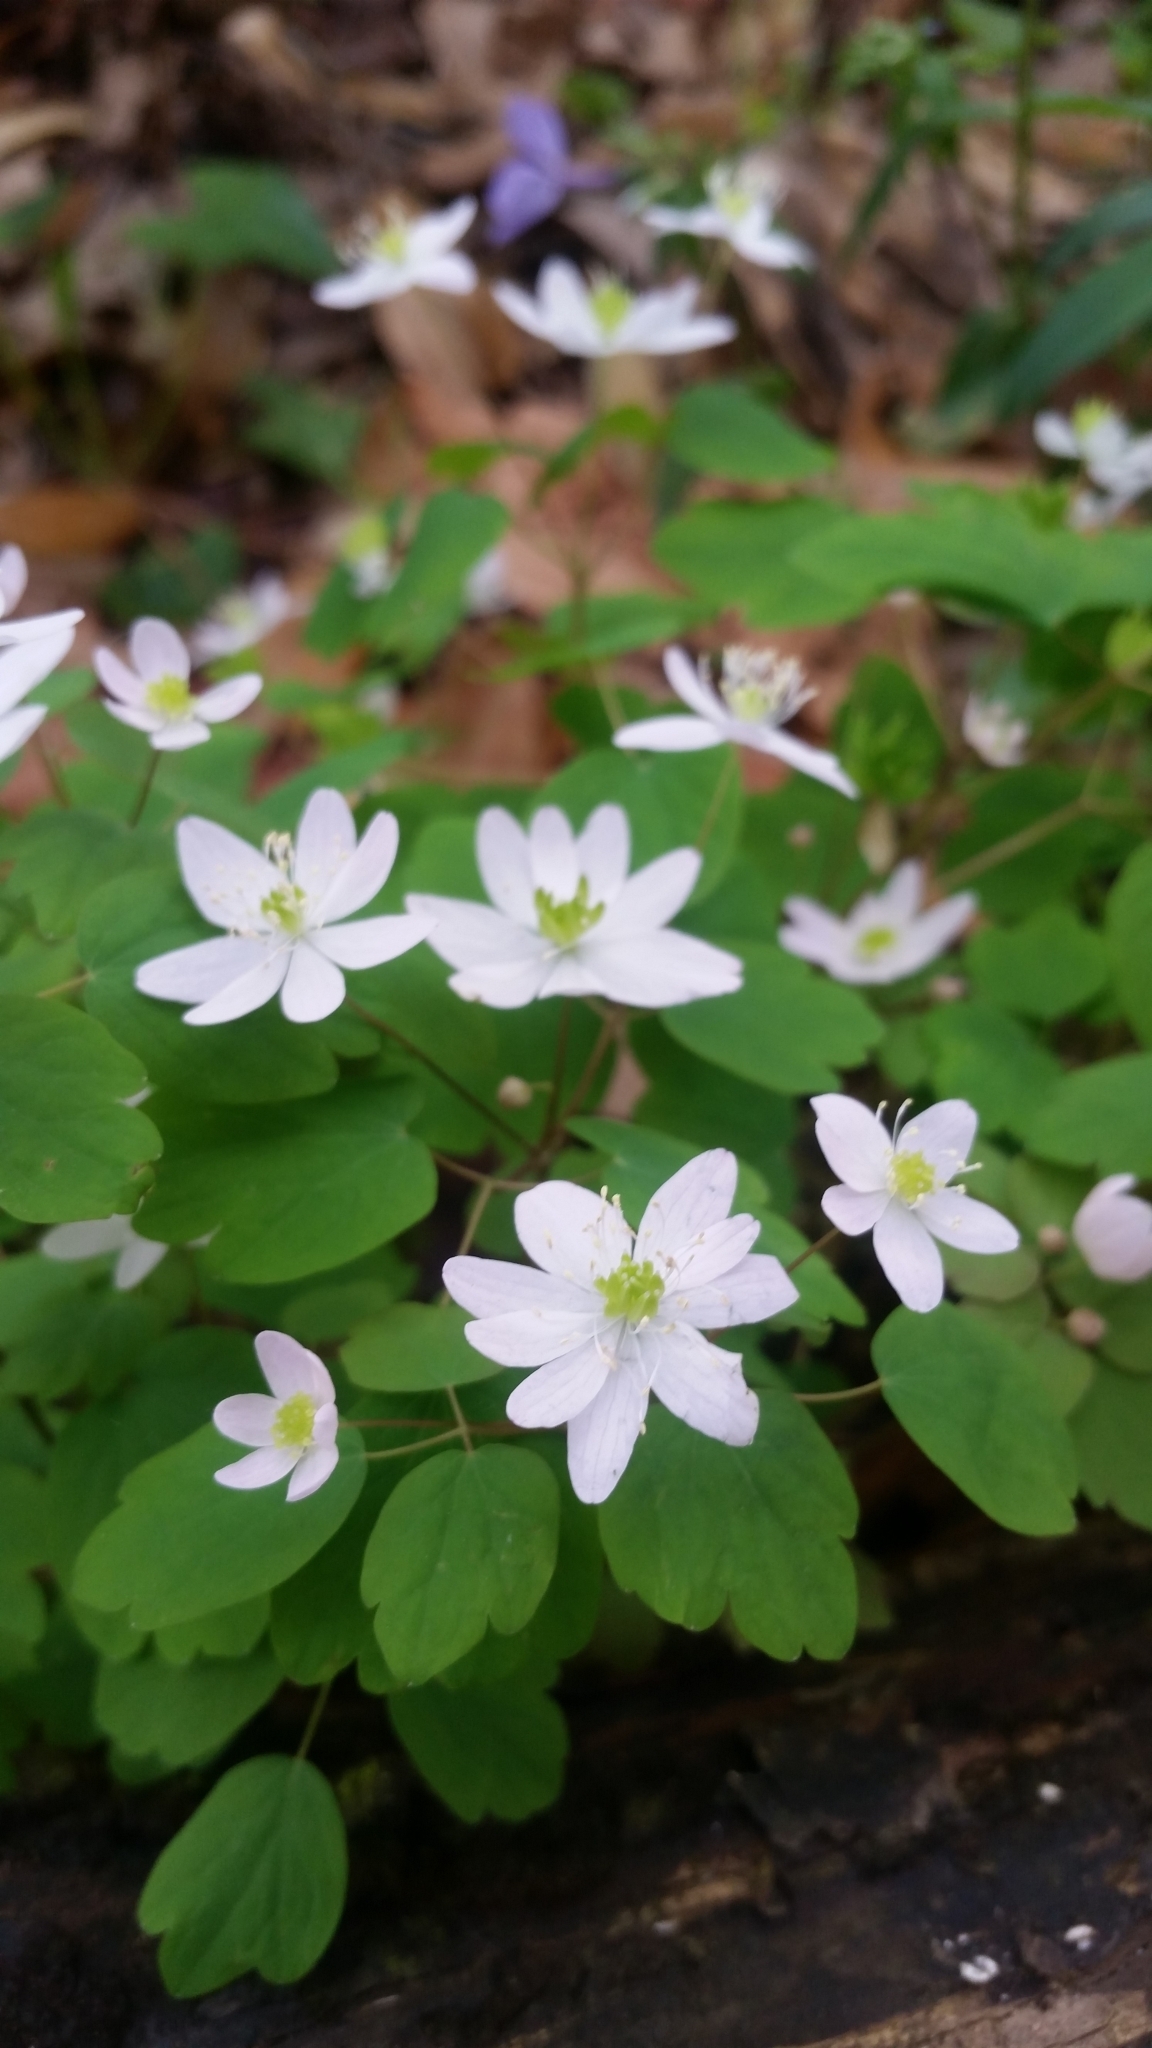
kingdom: Plantae
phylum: Tracheophyta
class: Magnoliopsida
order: Ranunculales
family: Ranunculaceae
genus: Thalictrum
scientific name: Thalictrum thalictroides
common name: Rue-anemone
